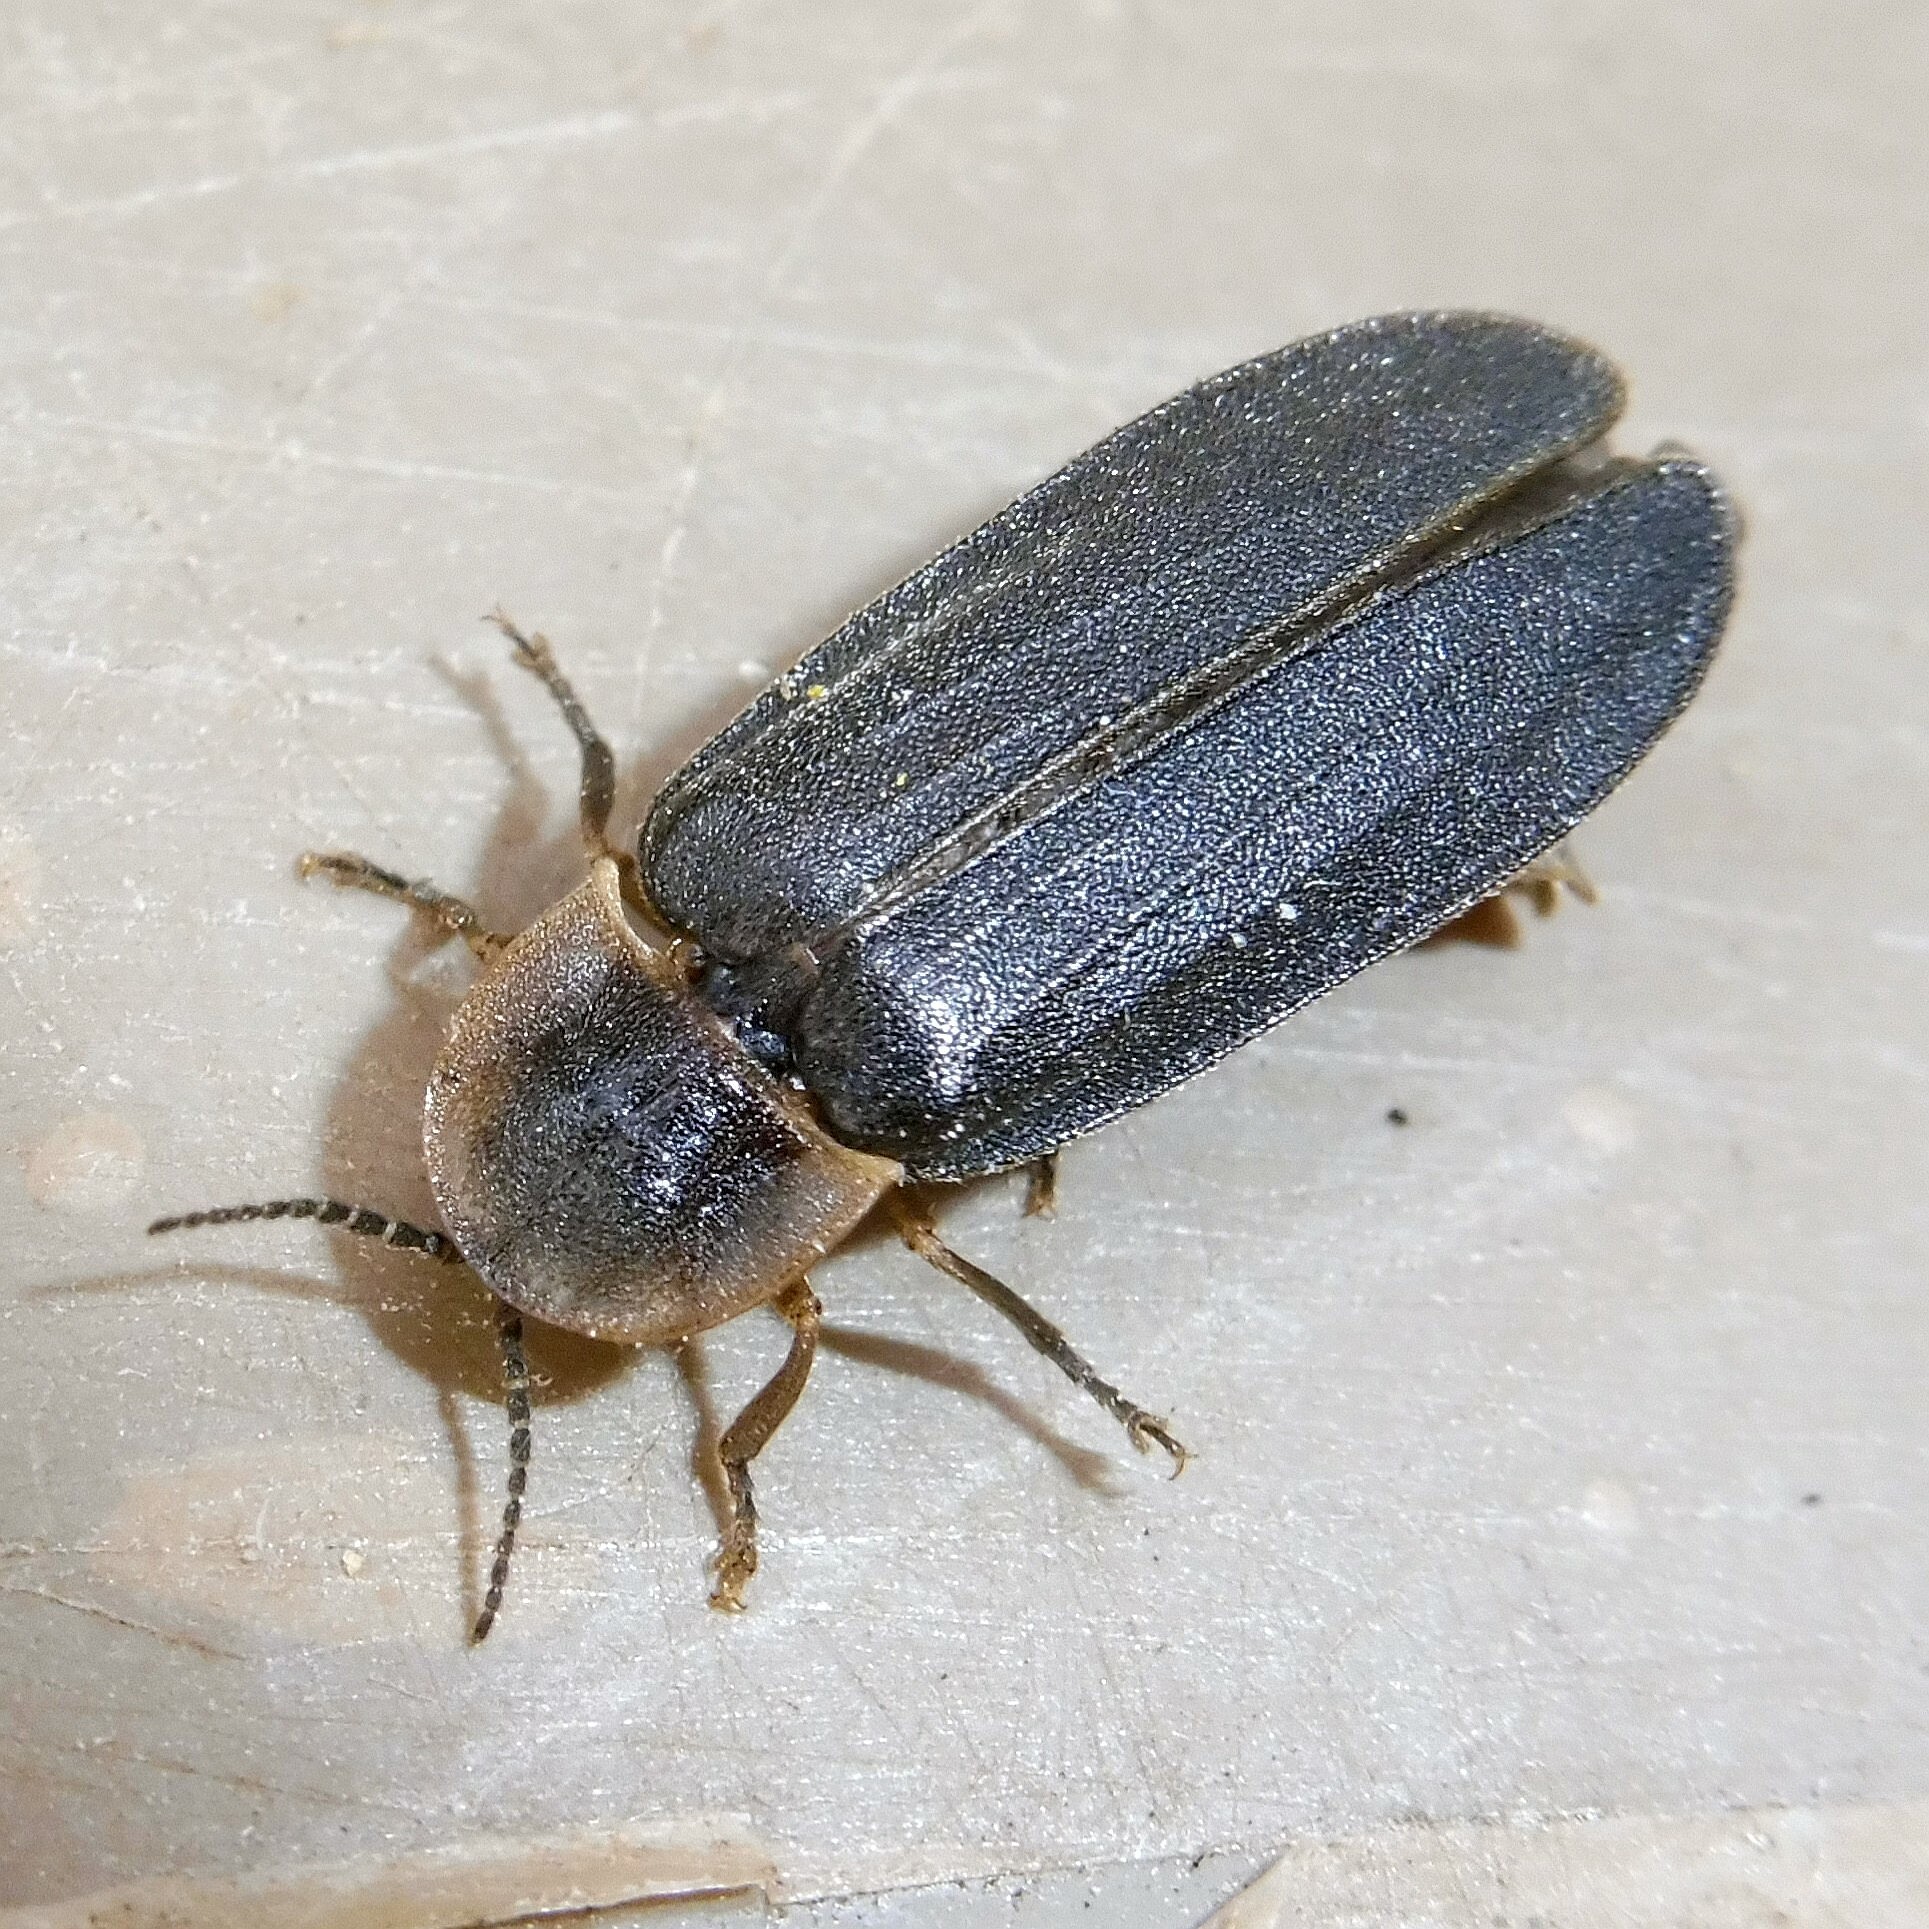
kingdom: Animalia
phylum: Arthropoda
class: Insecta
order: Coleoptera
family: Lampyridae
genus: Lampyris
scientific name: Lampyris noctiluca
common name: Glow-worm
